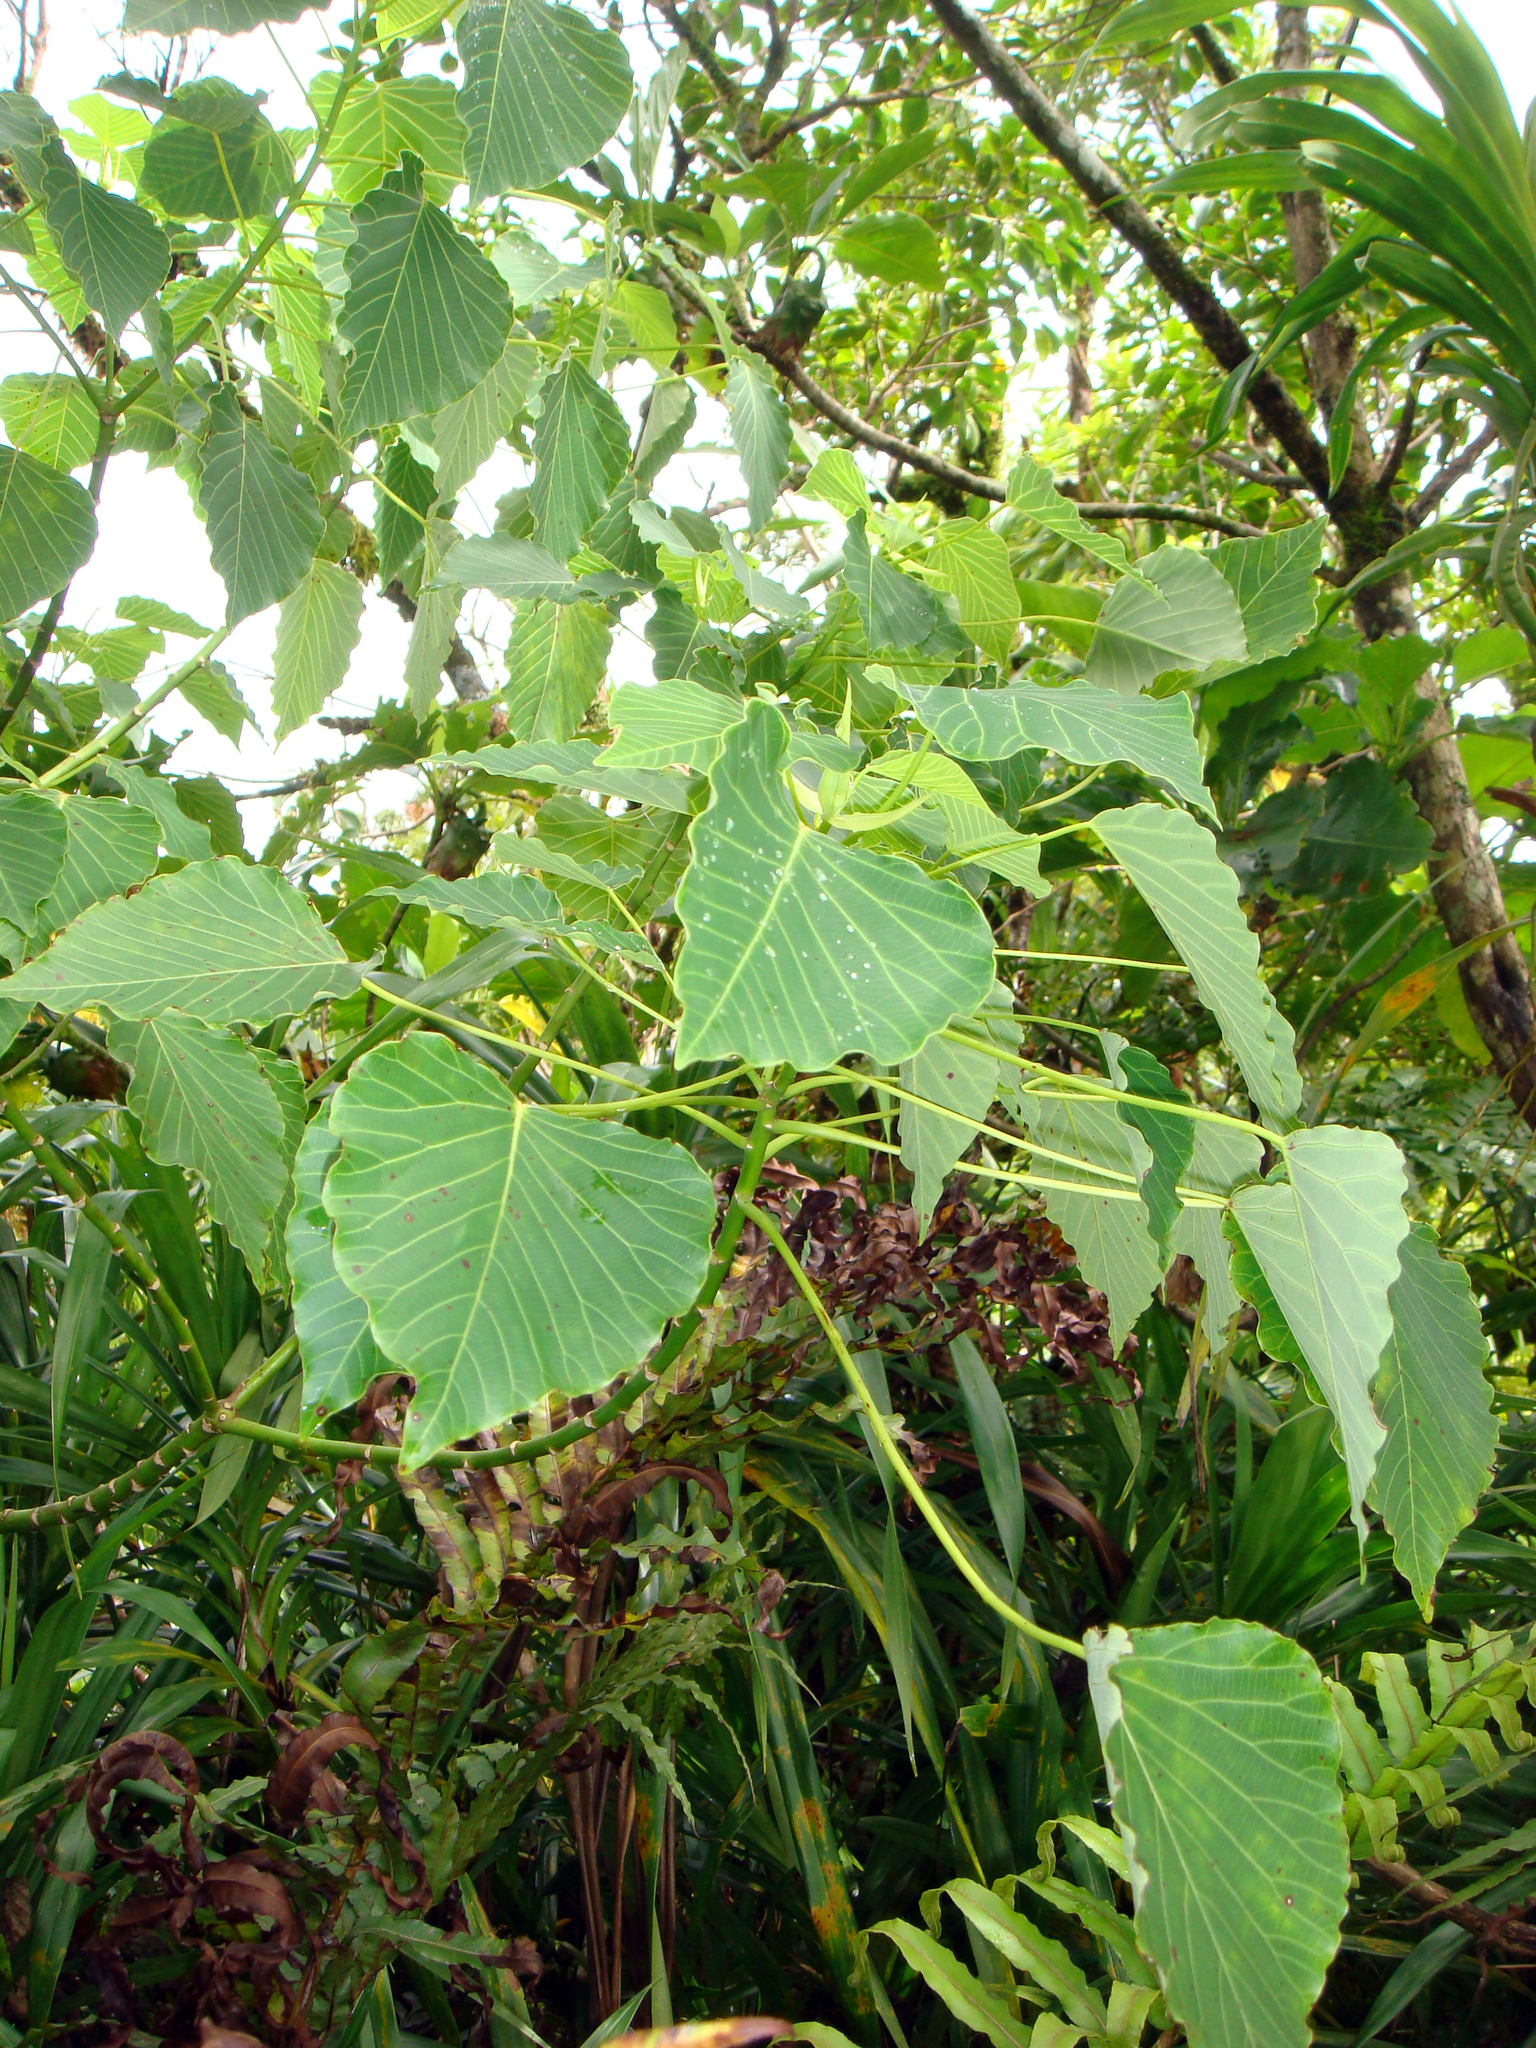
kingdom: Plantae
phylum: Tracheophyta
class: Magnoliopsida
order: Malpighiales
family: Euphorbiaceae
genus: Homalanthus
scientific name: Homalanthus nutans
